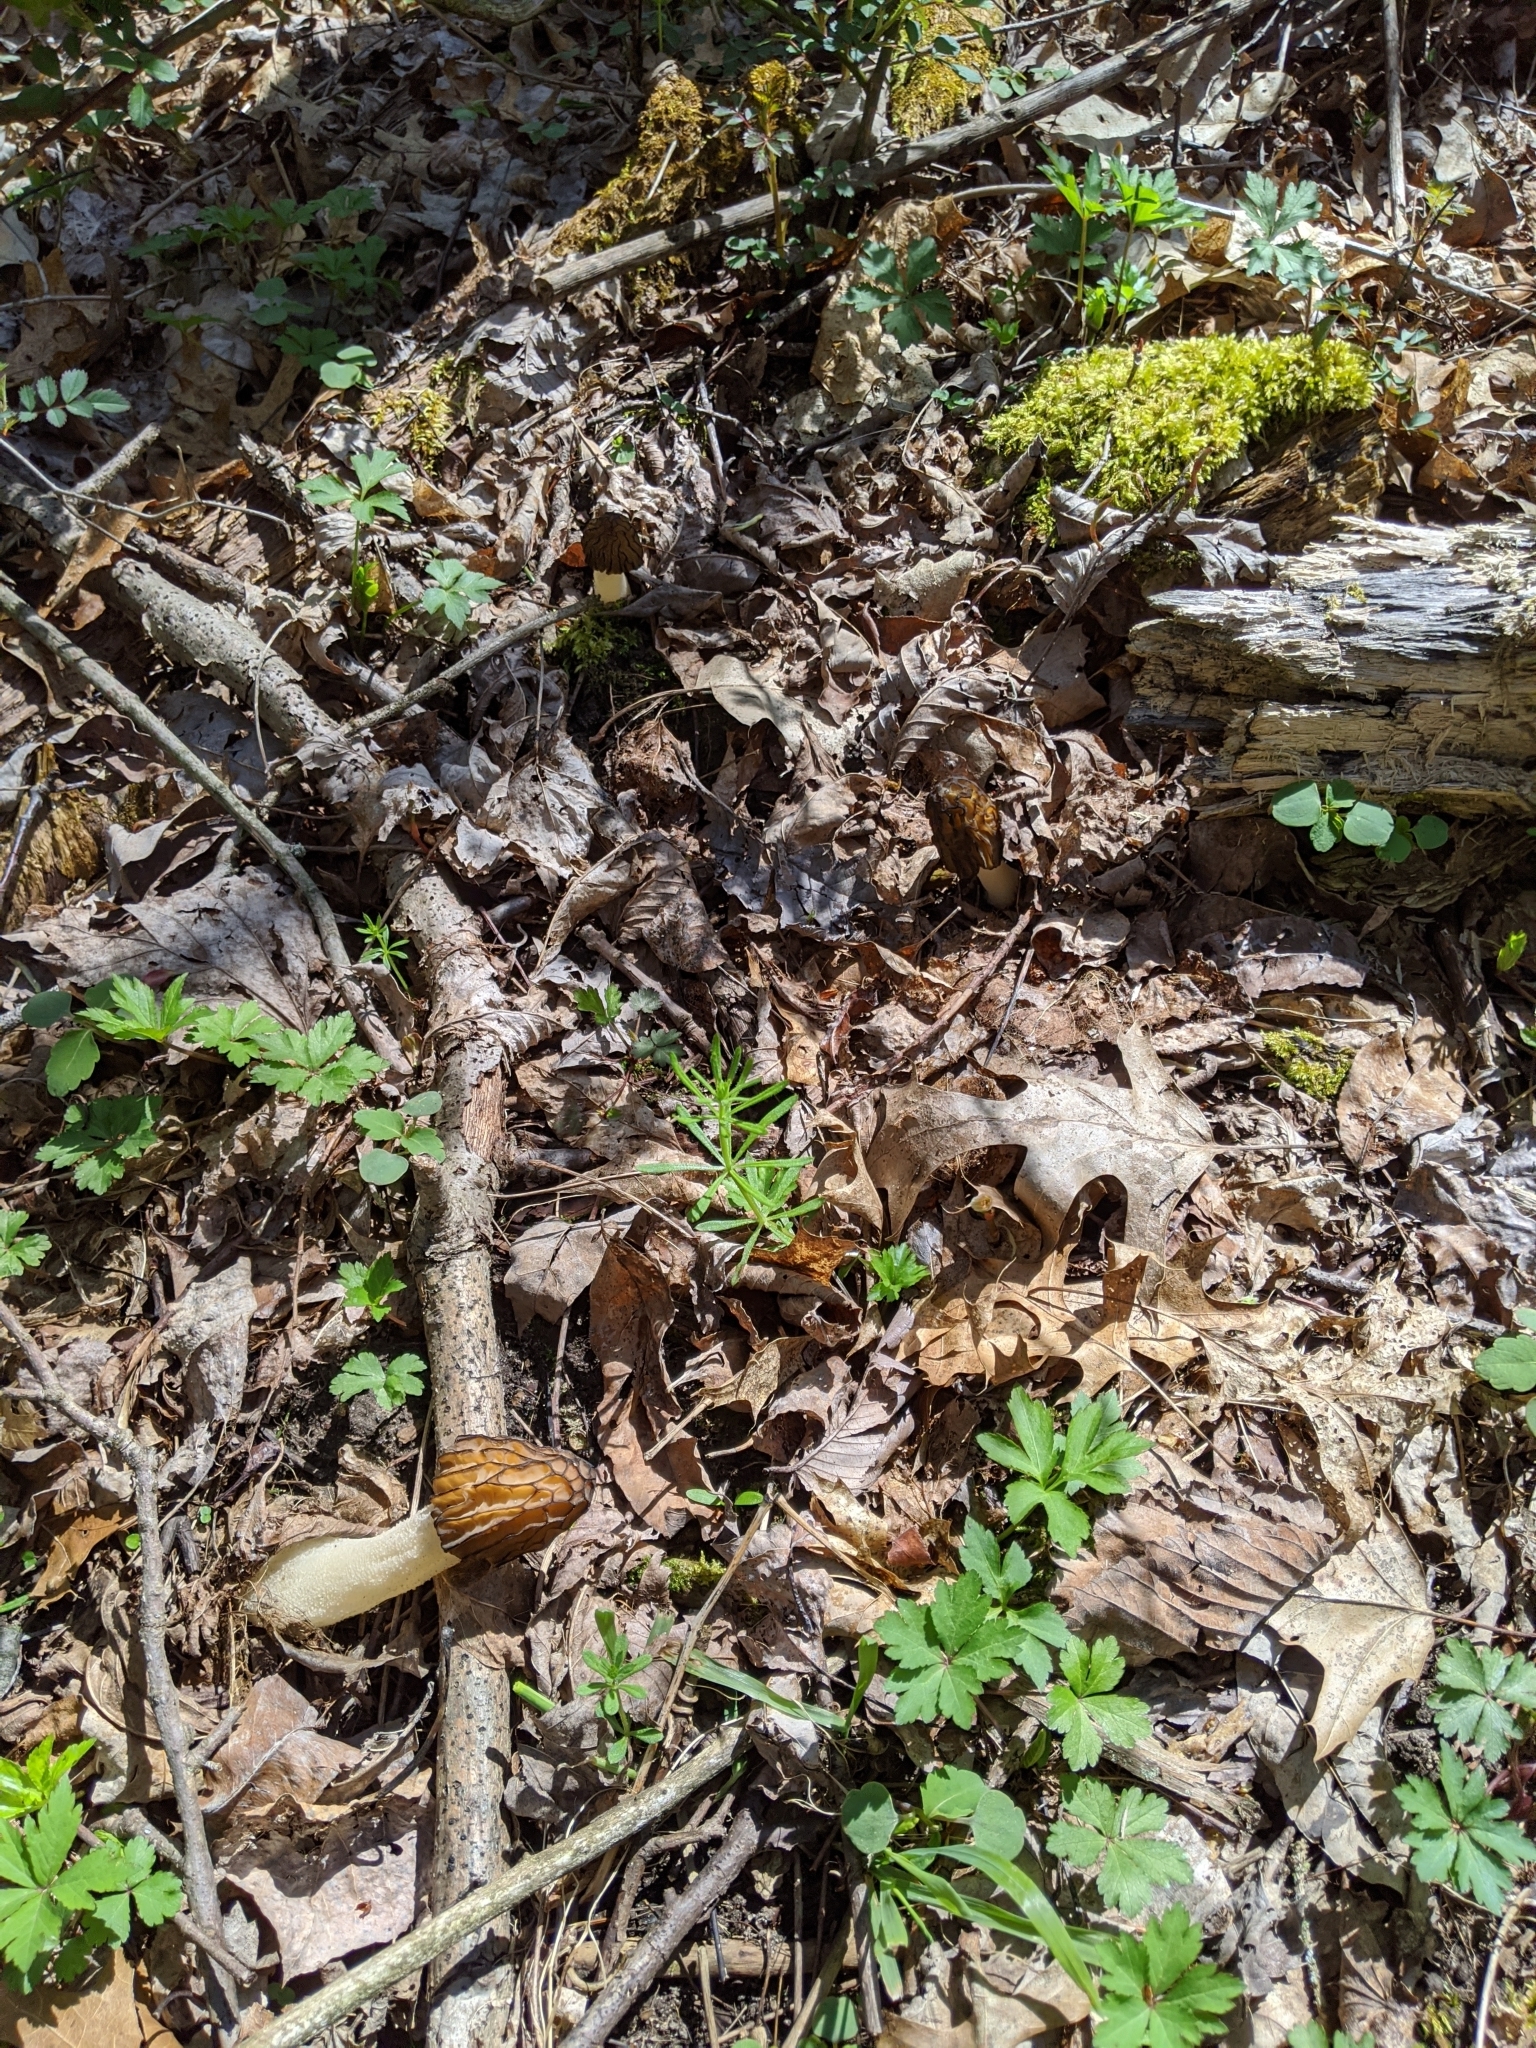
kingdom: Fungi
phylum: Ascomycota
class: Pezizomycetes
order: Pezizales
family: Morchellaceae
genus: Morchella
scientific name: Morchella punctipes
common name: Half-free morel
